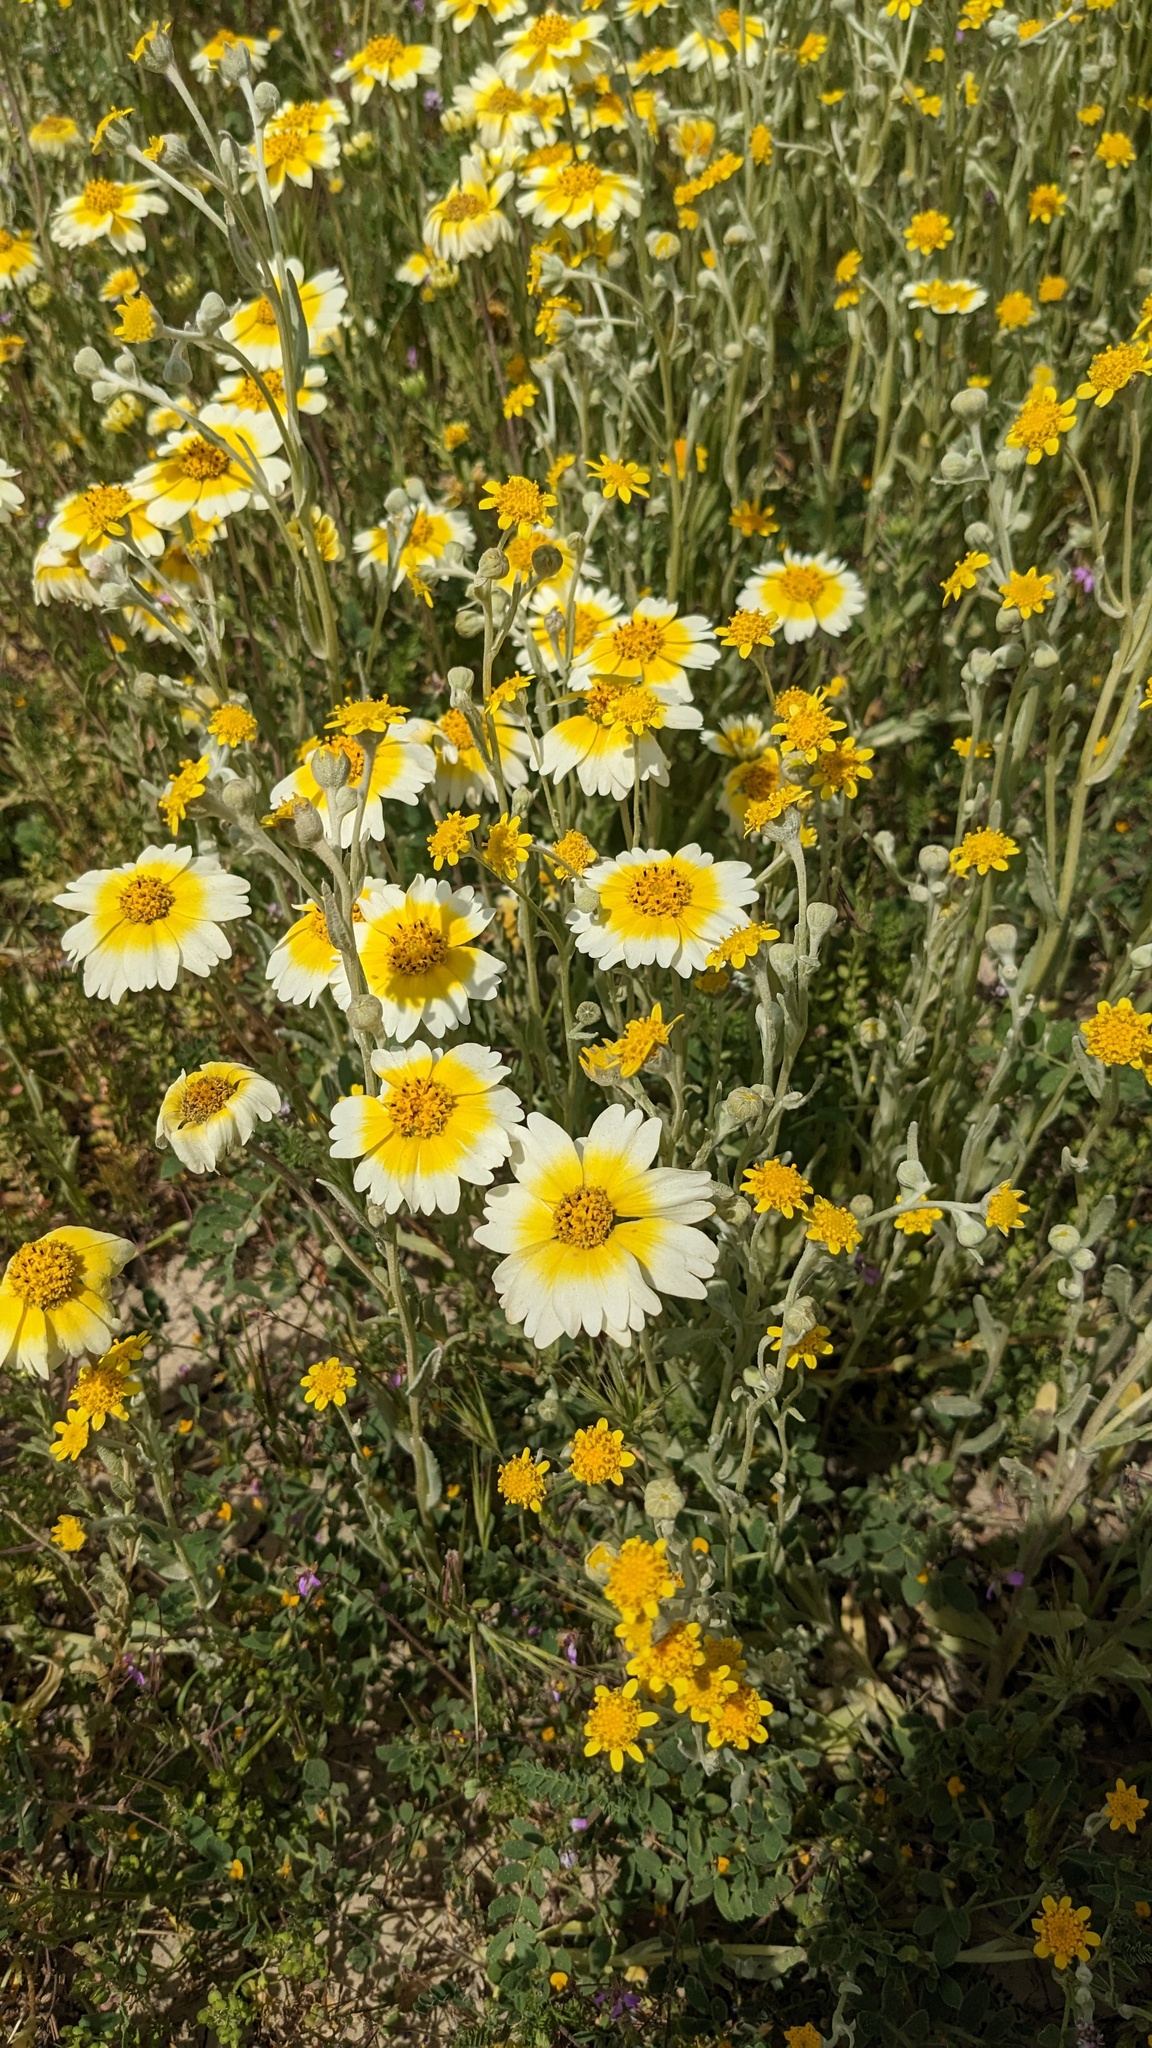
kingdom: Plantae
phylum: Tracheophyta
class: Magnoliopsida
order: Asterales
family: Asteraceae
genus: Layia
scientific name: Layia munzii
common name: Munz's tidy-tips
